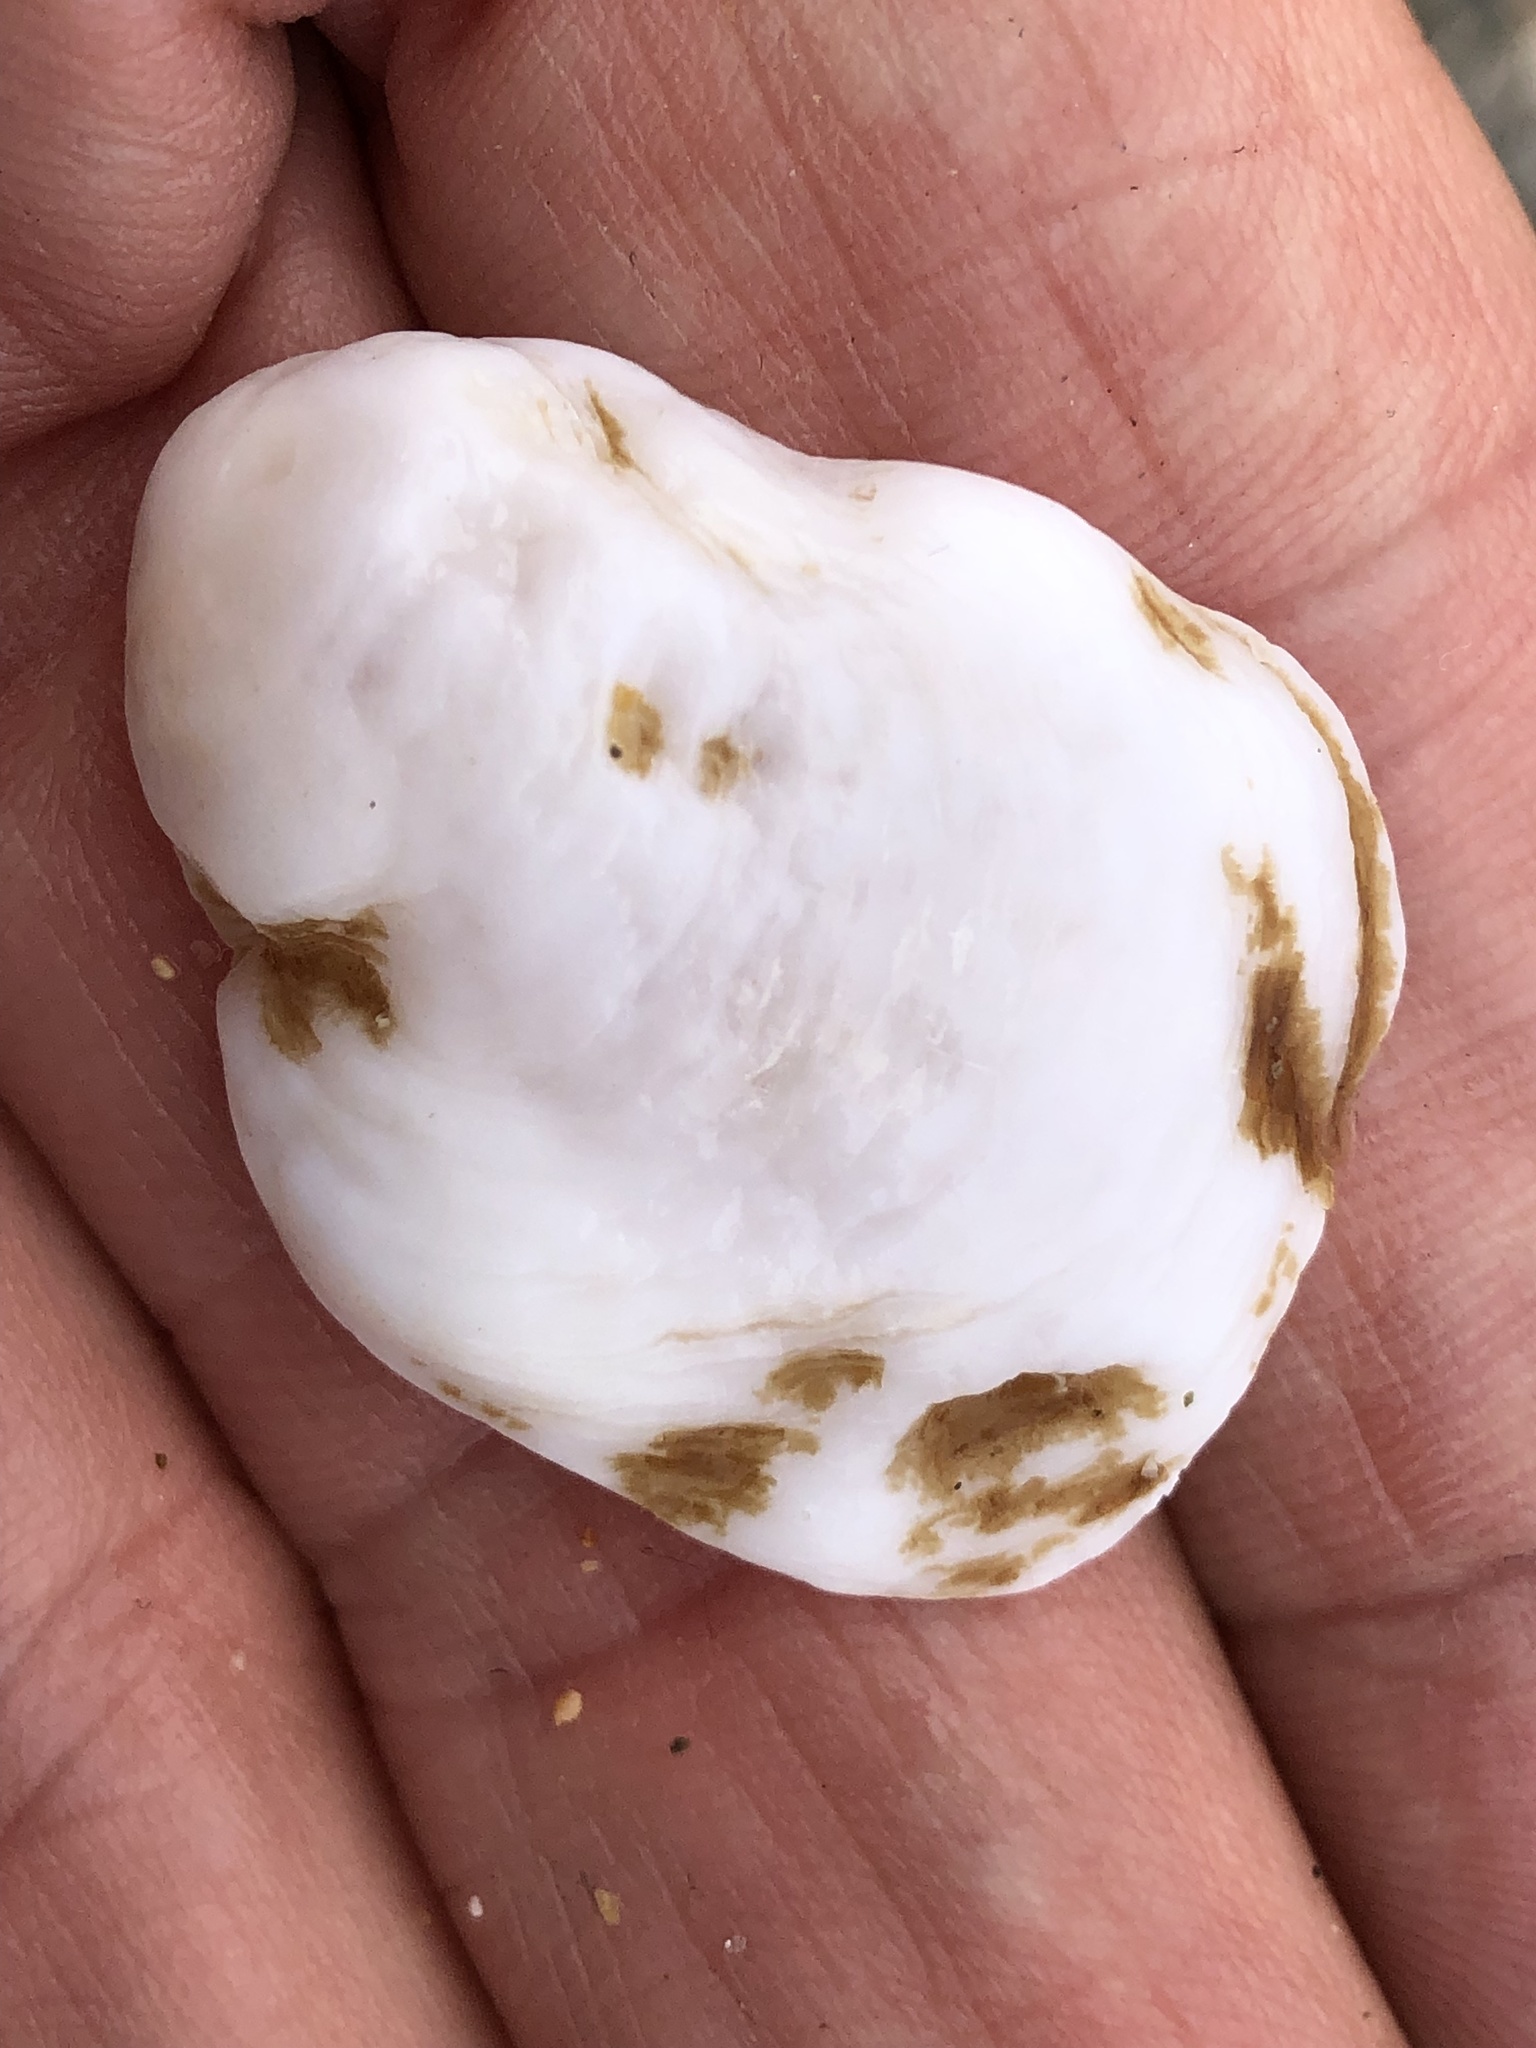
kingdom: Animalia
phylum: Mollusca
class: Gastropoda
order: Littorinimorpha
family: Calyptraeidae
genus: Crepidula
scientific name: Crepidula nummaria
